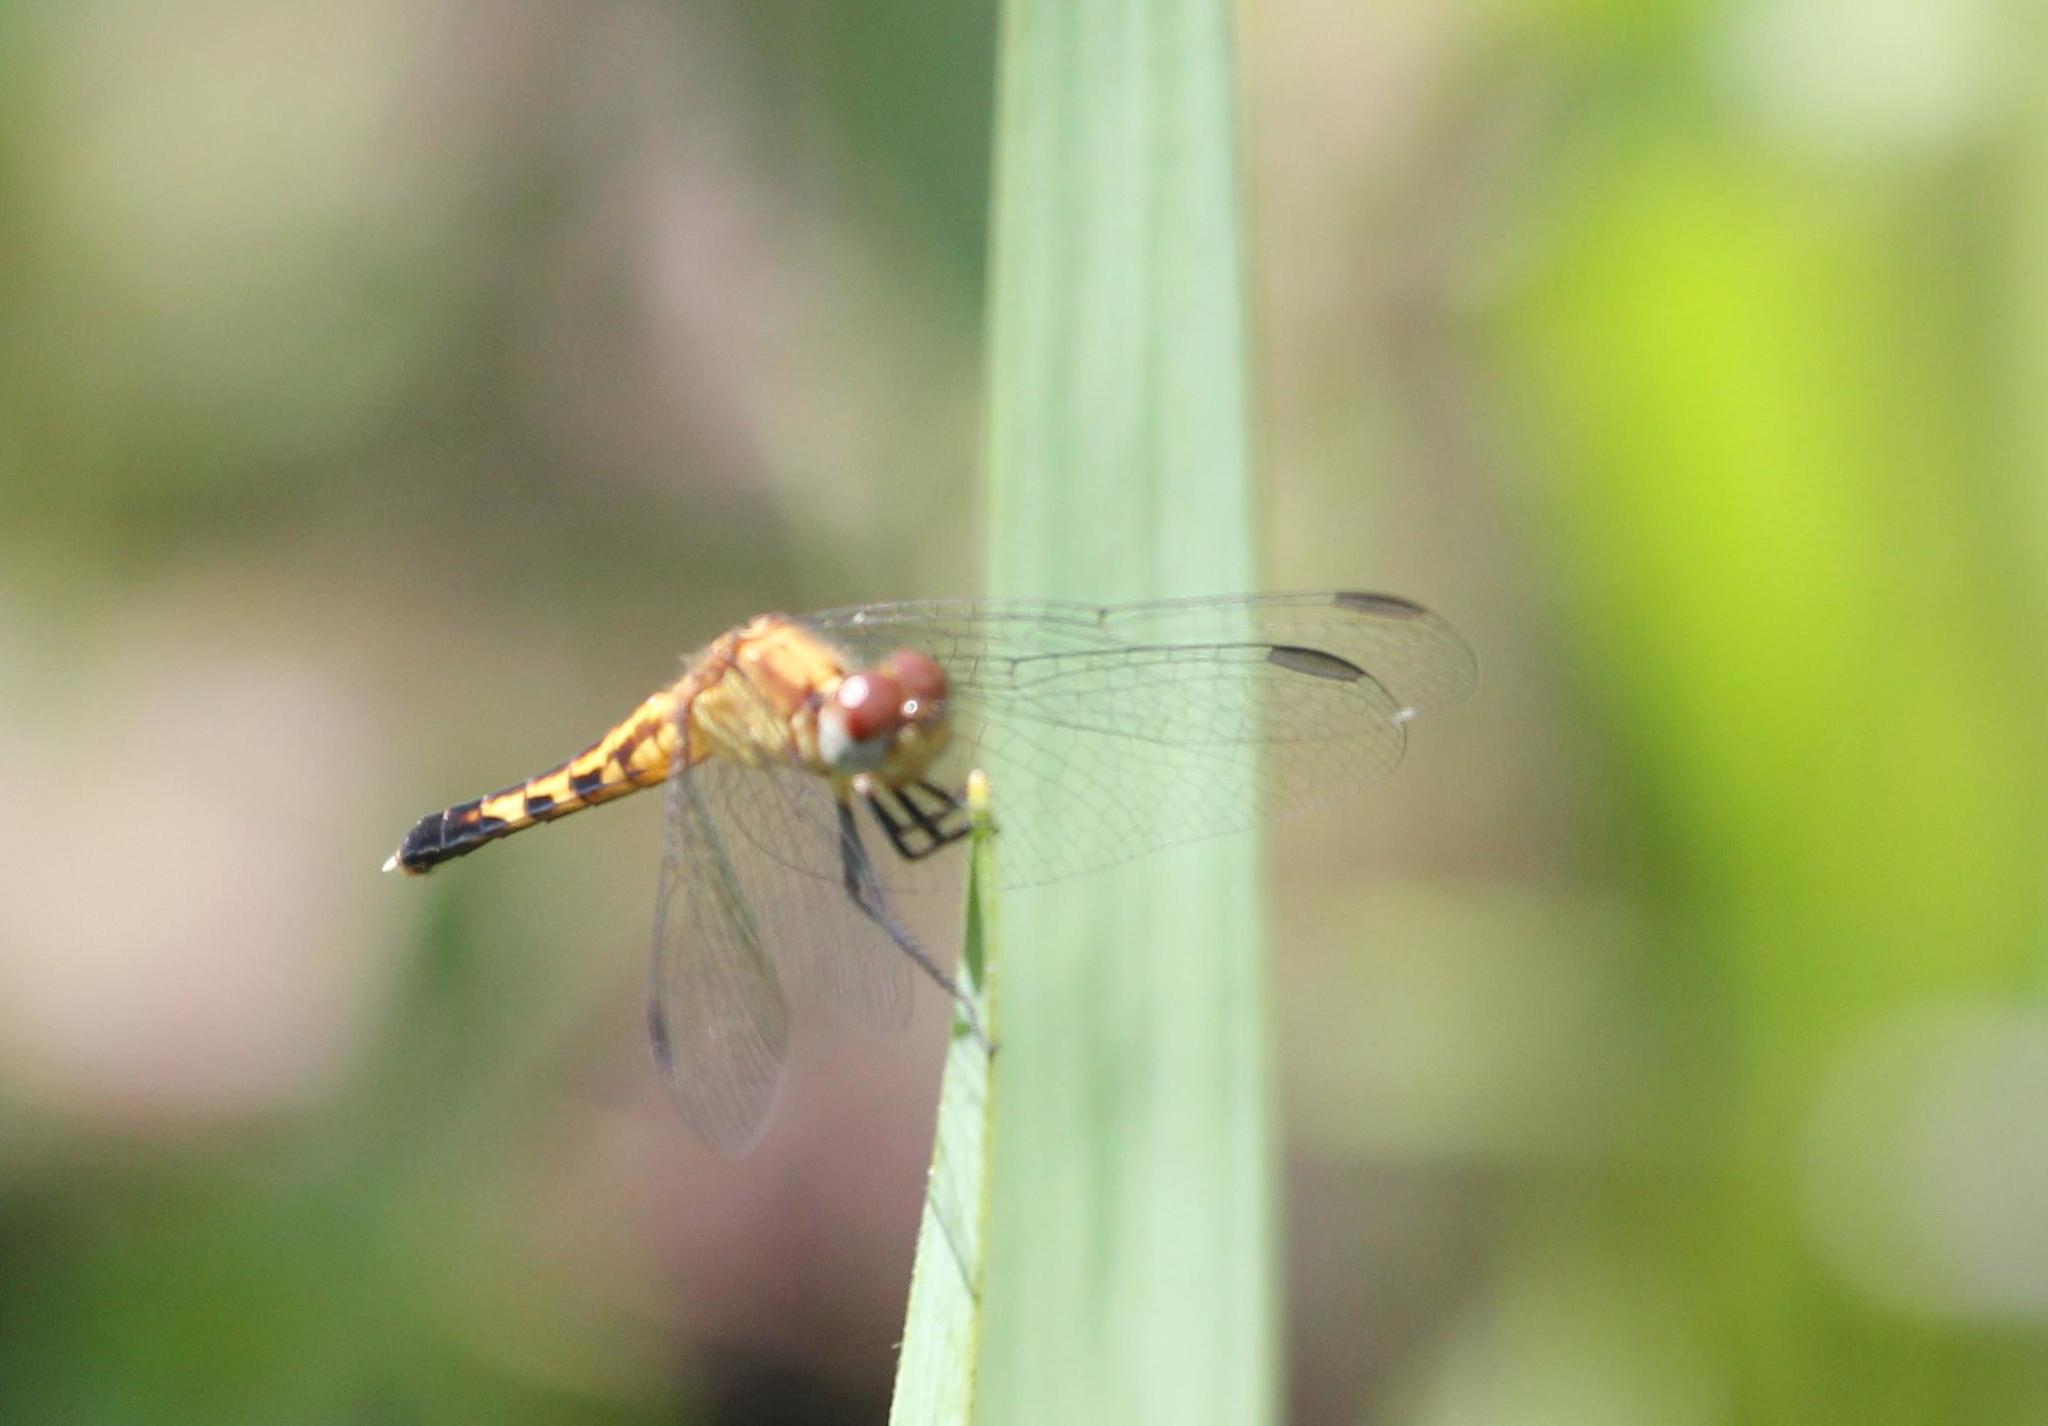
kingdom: Animalia
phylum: Arthropoda
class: Insecta
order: Odonata
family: Libellulidae
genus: Erythrodiplax
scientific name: Erythrodiplax minuscula
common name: Little blue dragonlet
